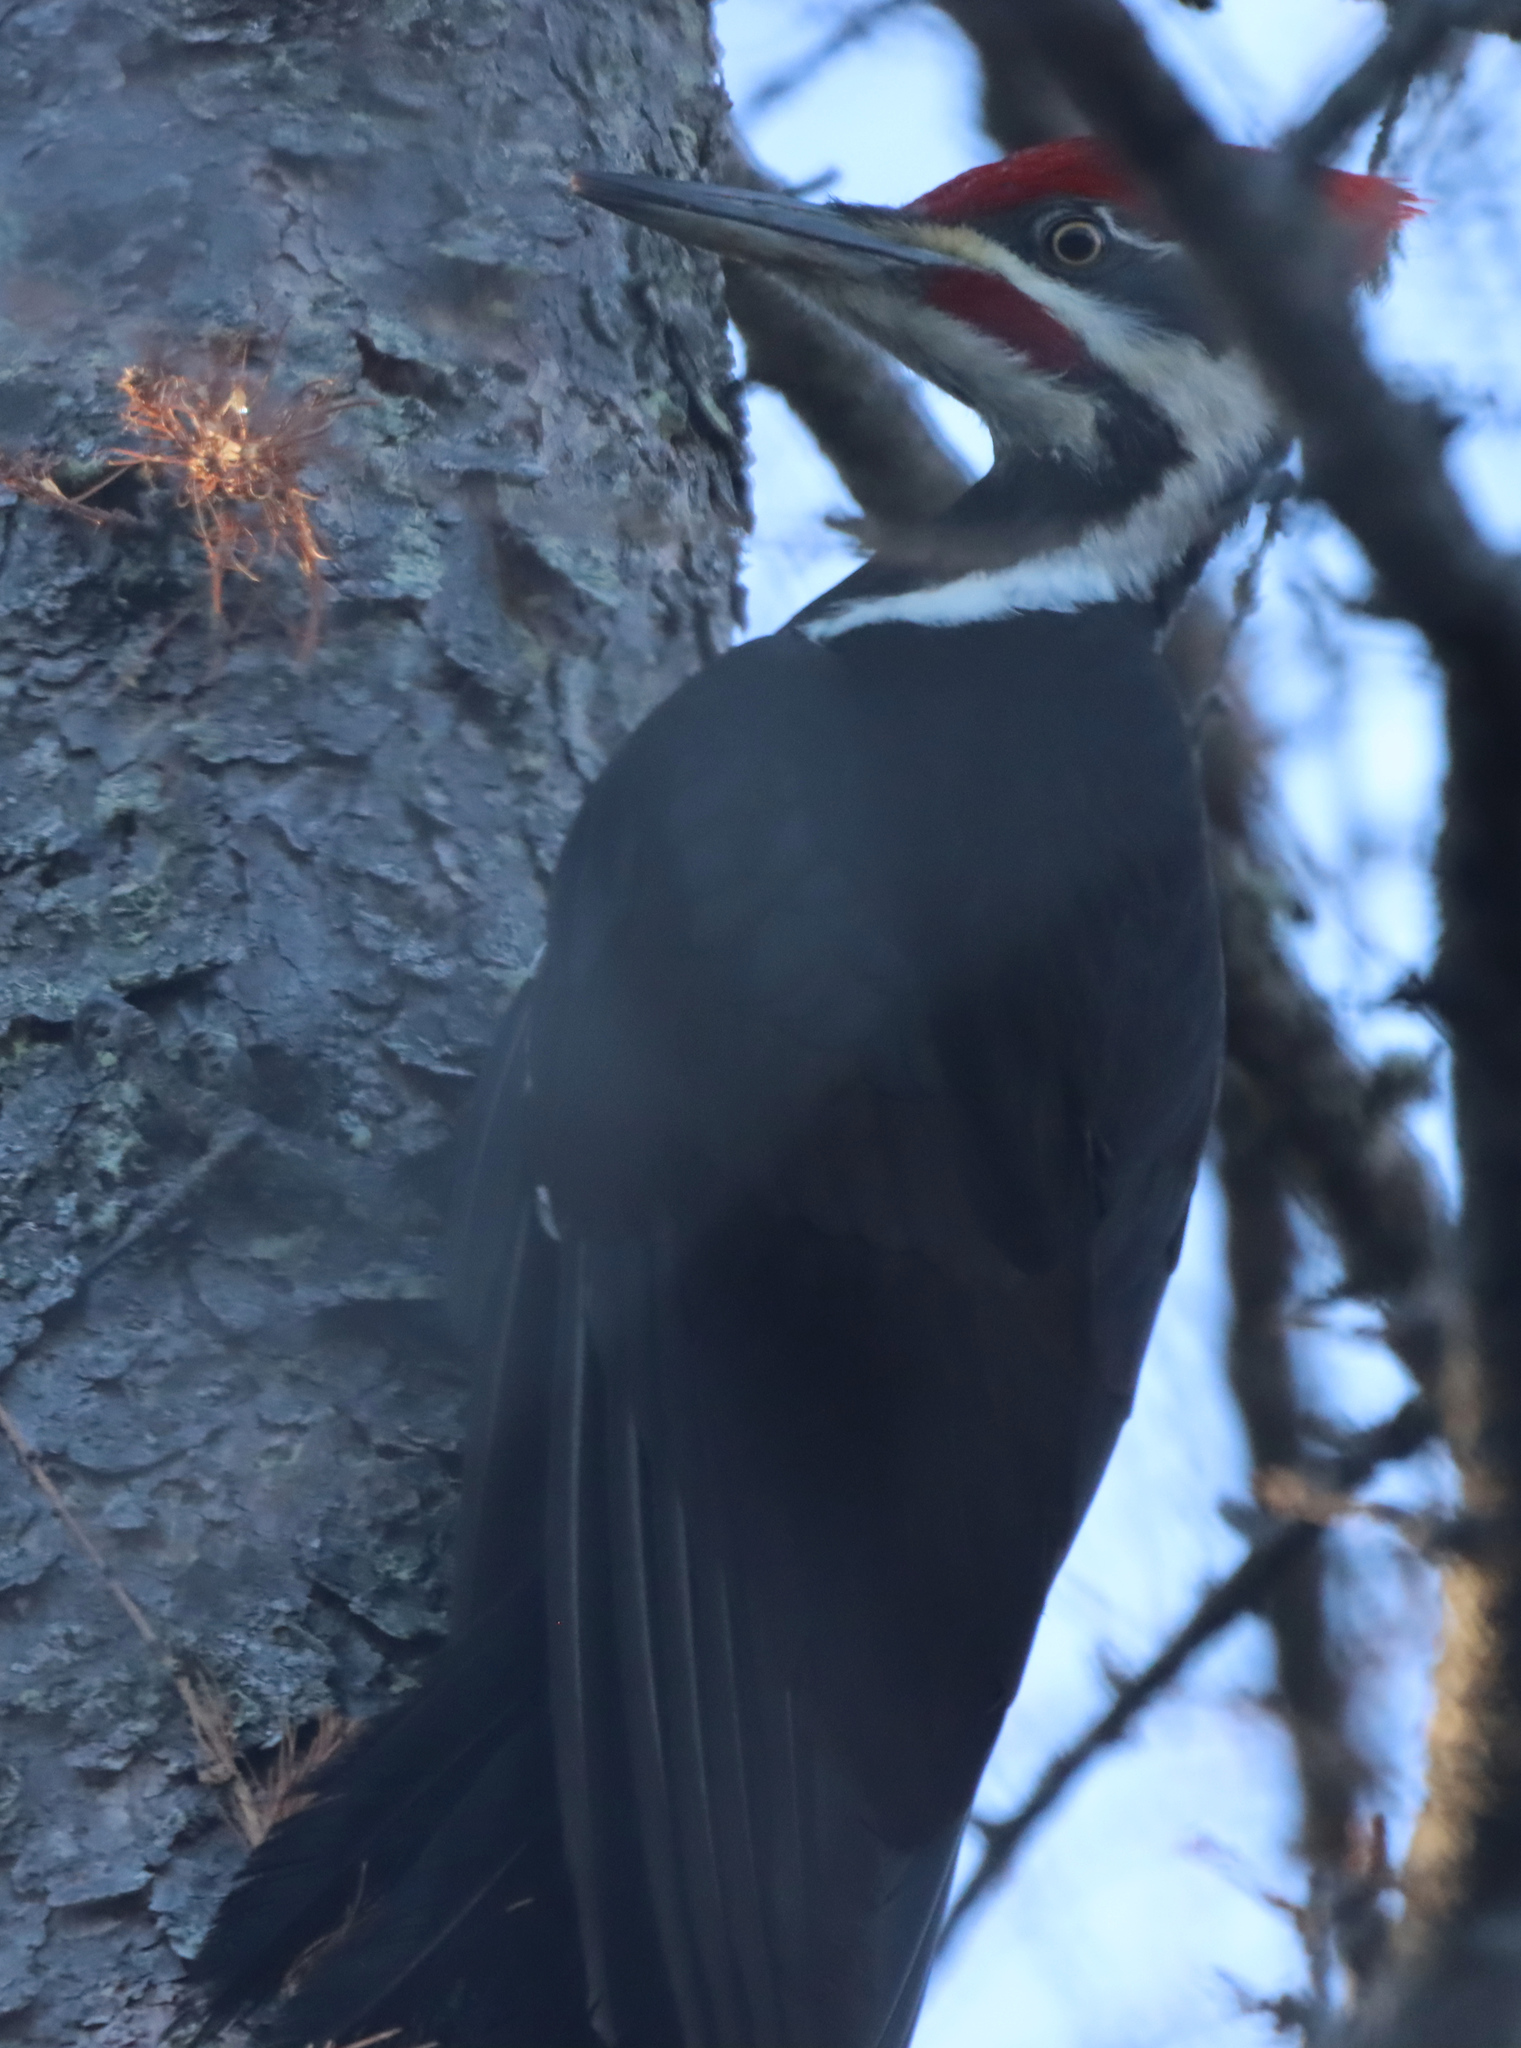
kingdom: Animalia
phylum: Chordata
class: Aves
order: Piciformes
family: Picidae
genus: Dryocopus
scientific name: Dryocopus pileatus
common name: Pileated woodpecker
